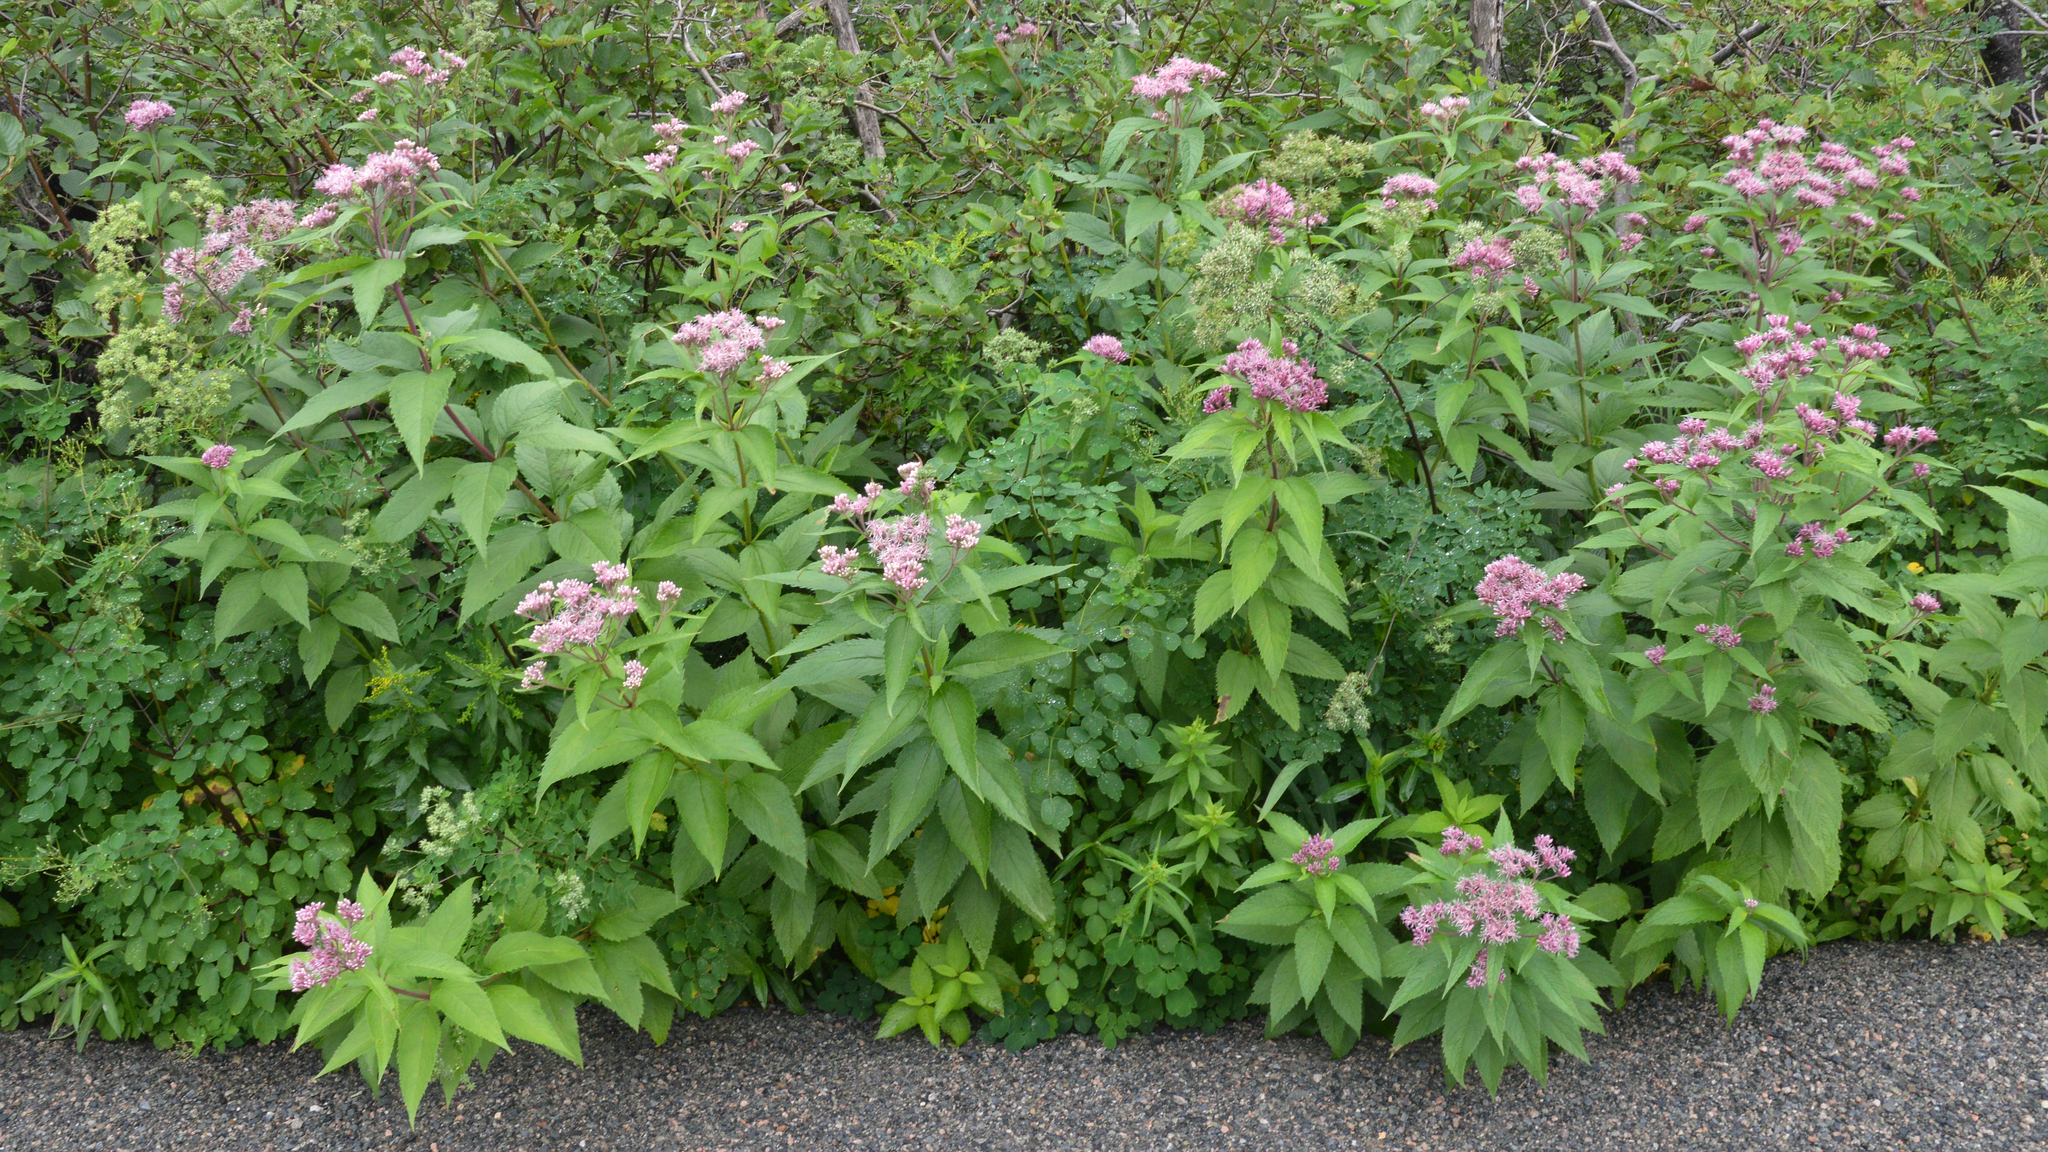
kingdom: Plantae
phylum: Tracheophyta
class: Magnoliopsida
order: Asterales
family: Asteraceae
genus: Eutrochium
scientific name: Eutrochium maculatum
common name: Spotted joe pye weed
